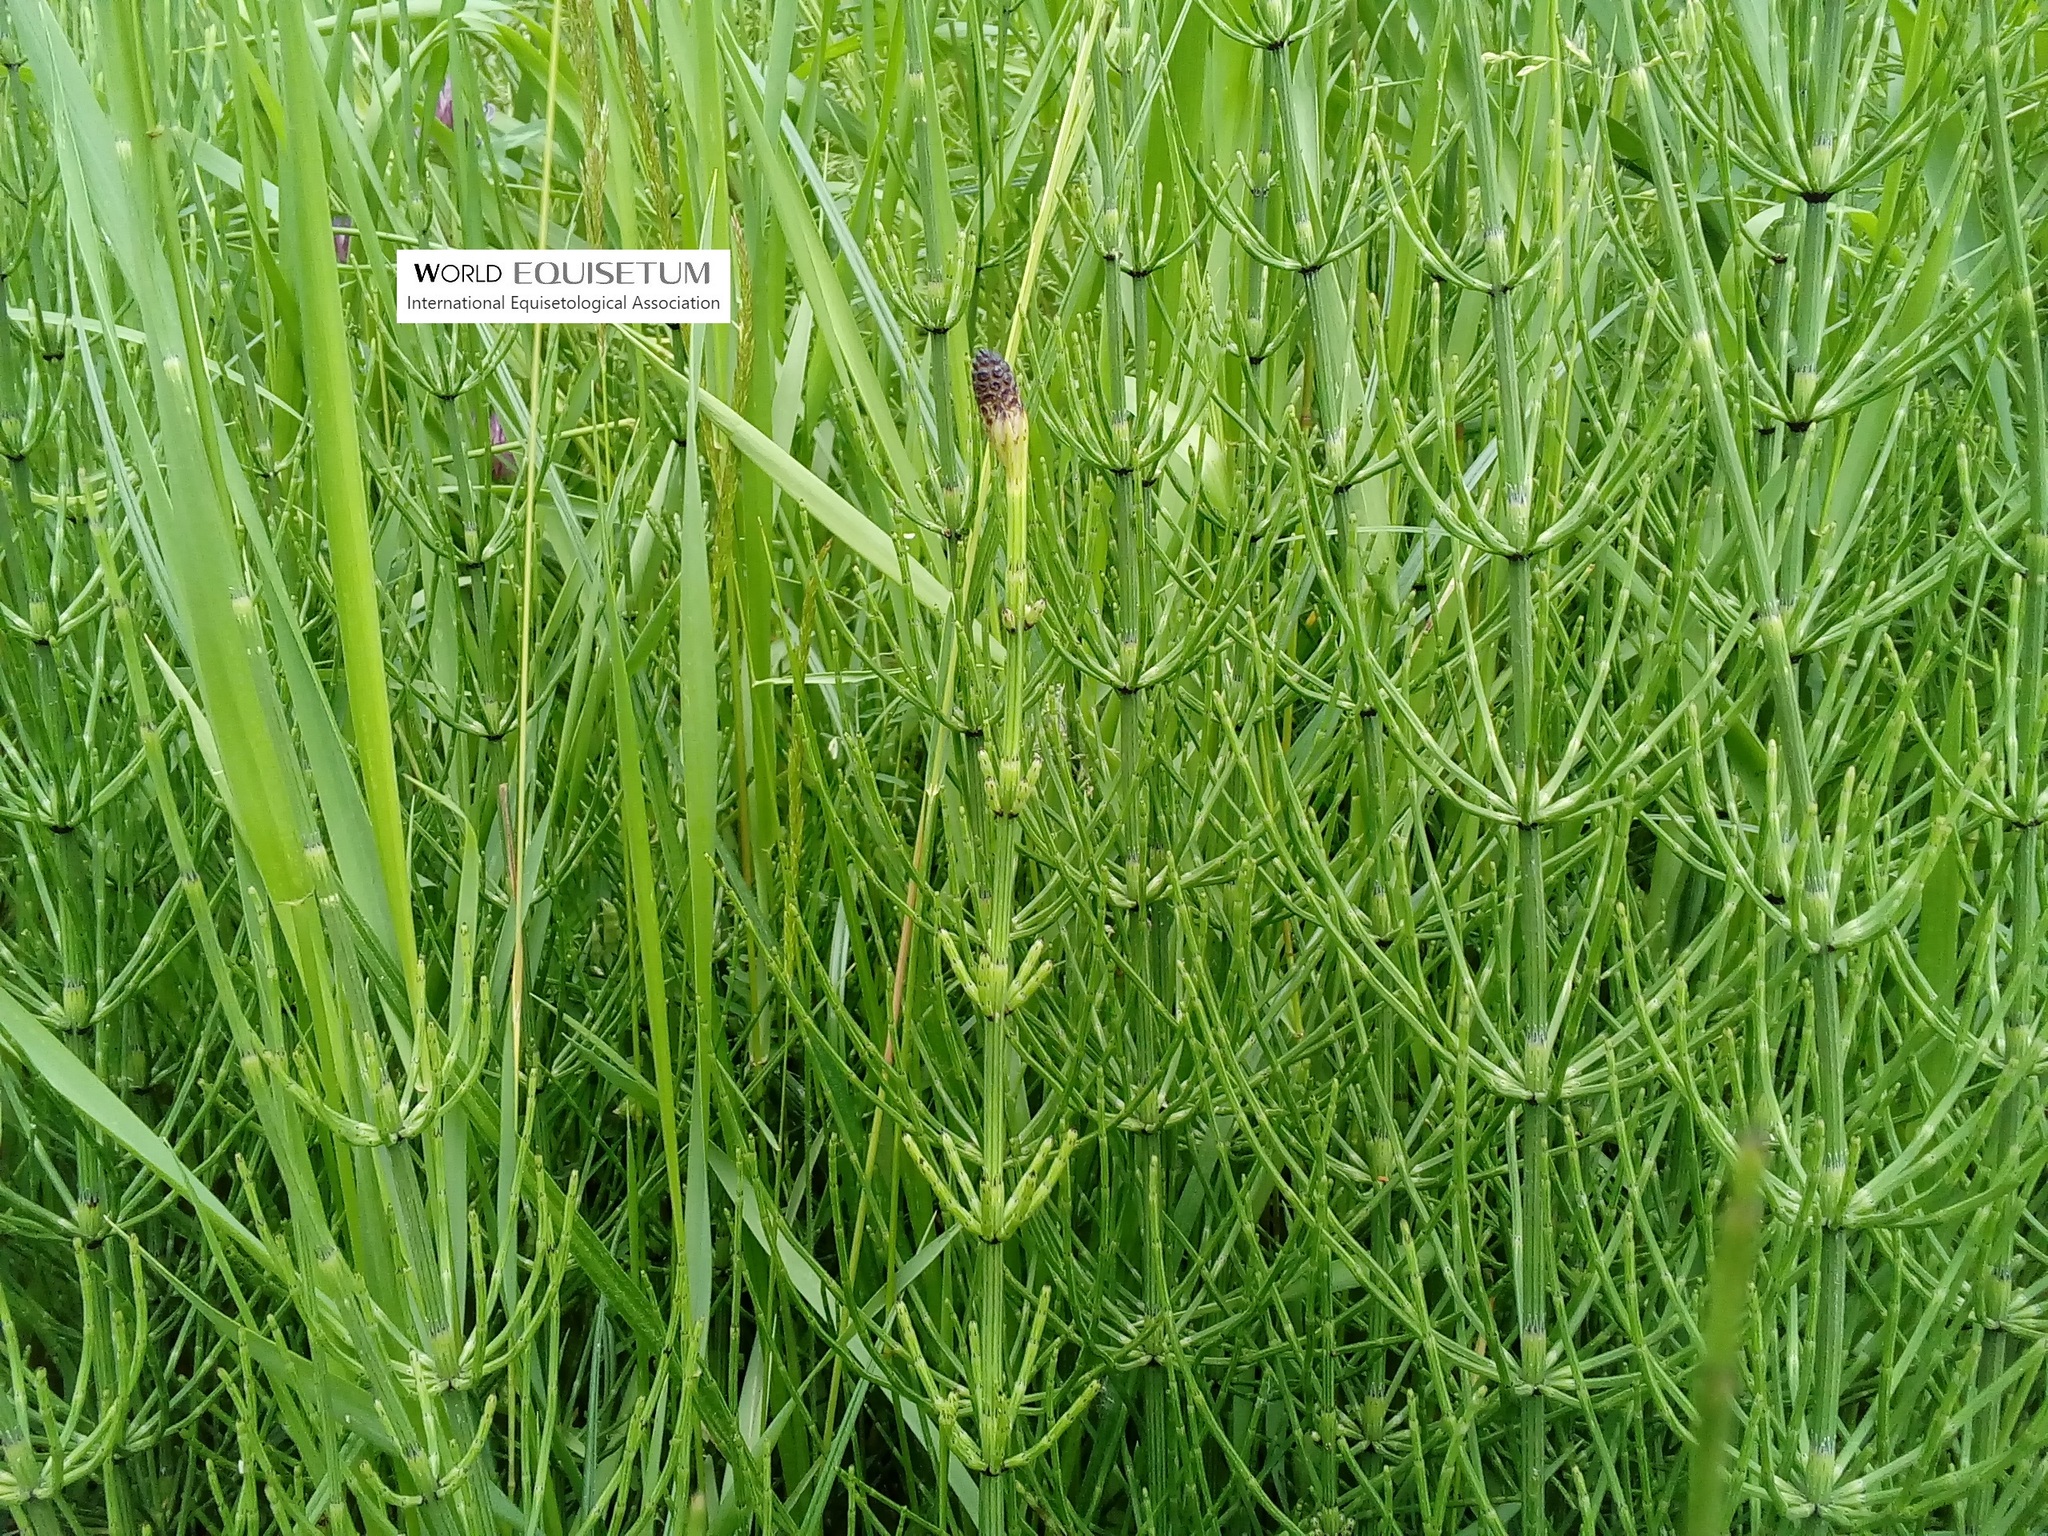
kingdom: Plantae
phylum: Tracheophyta
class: Polypodiopsida
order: Equisetales
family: Equisetaceae
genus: Equisetum
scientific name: Equisetum palustre
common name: Marsh horsetail
